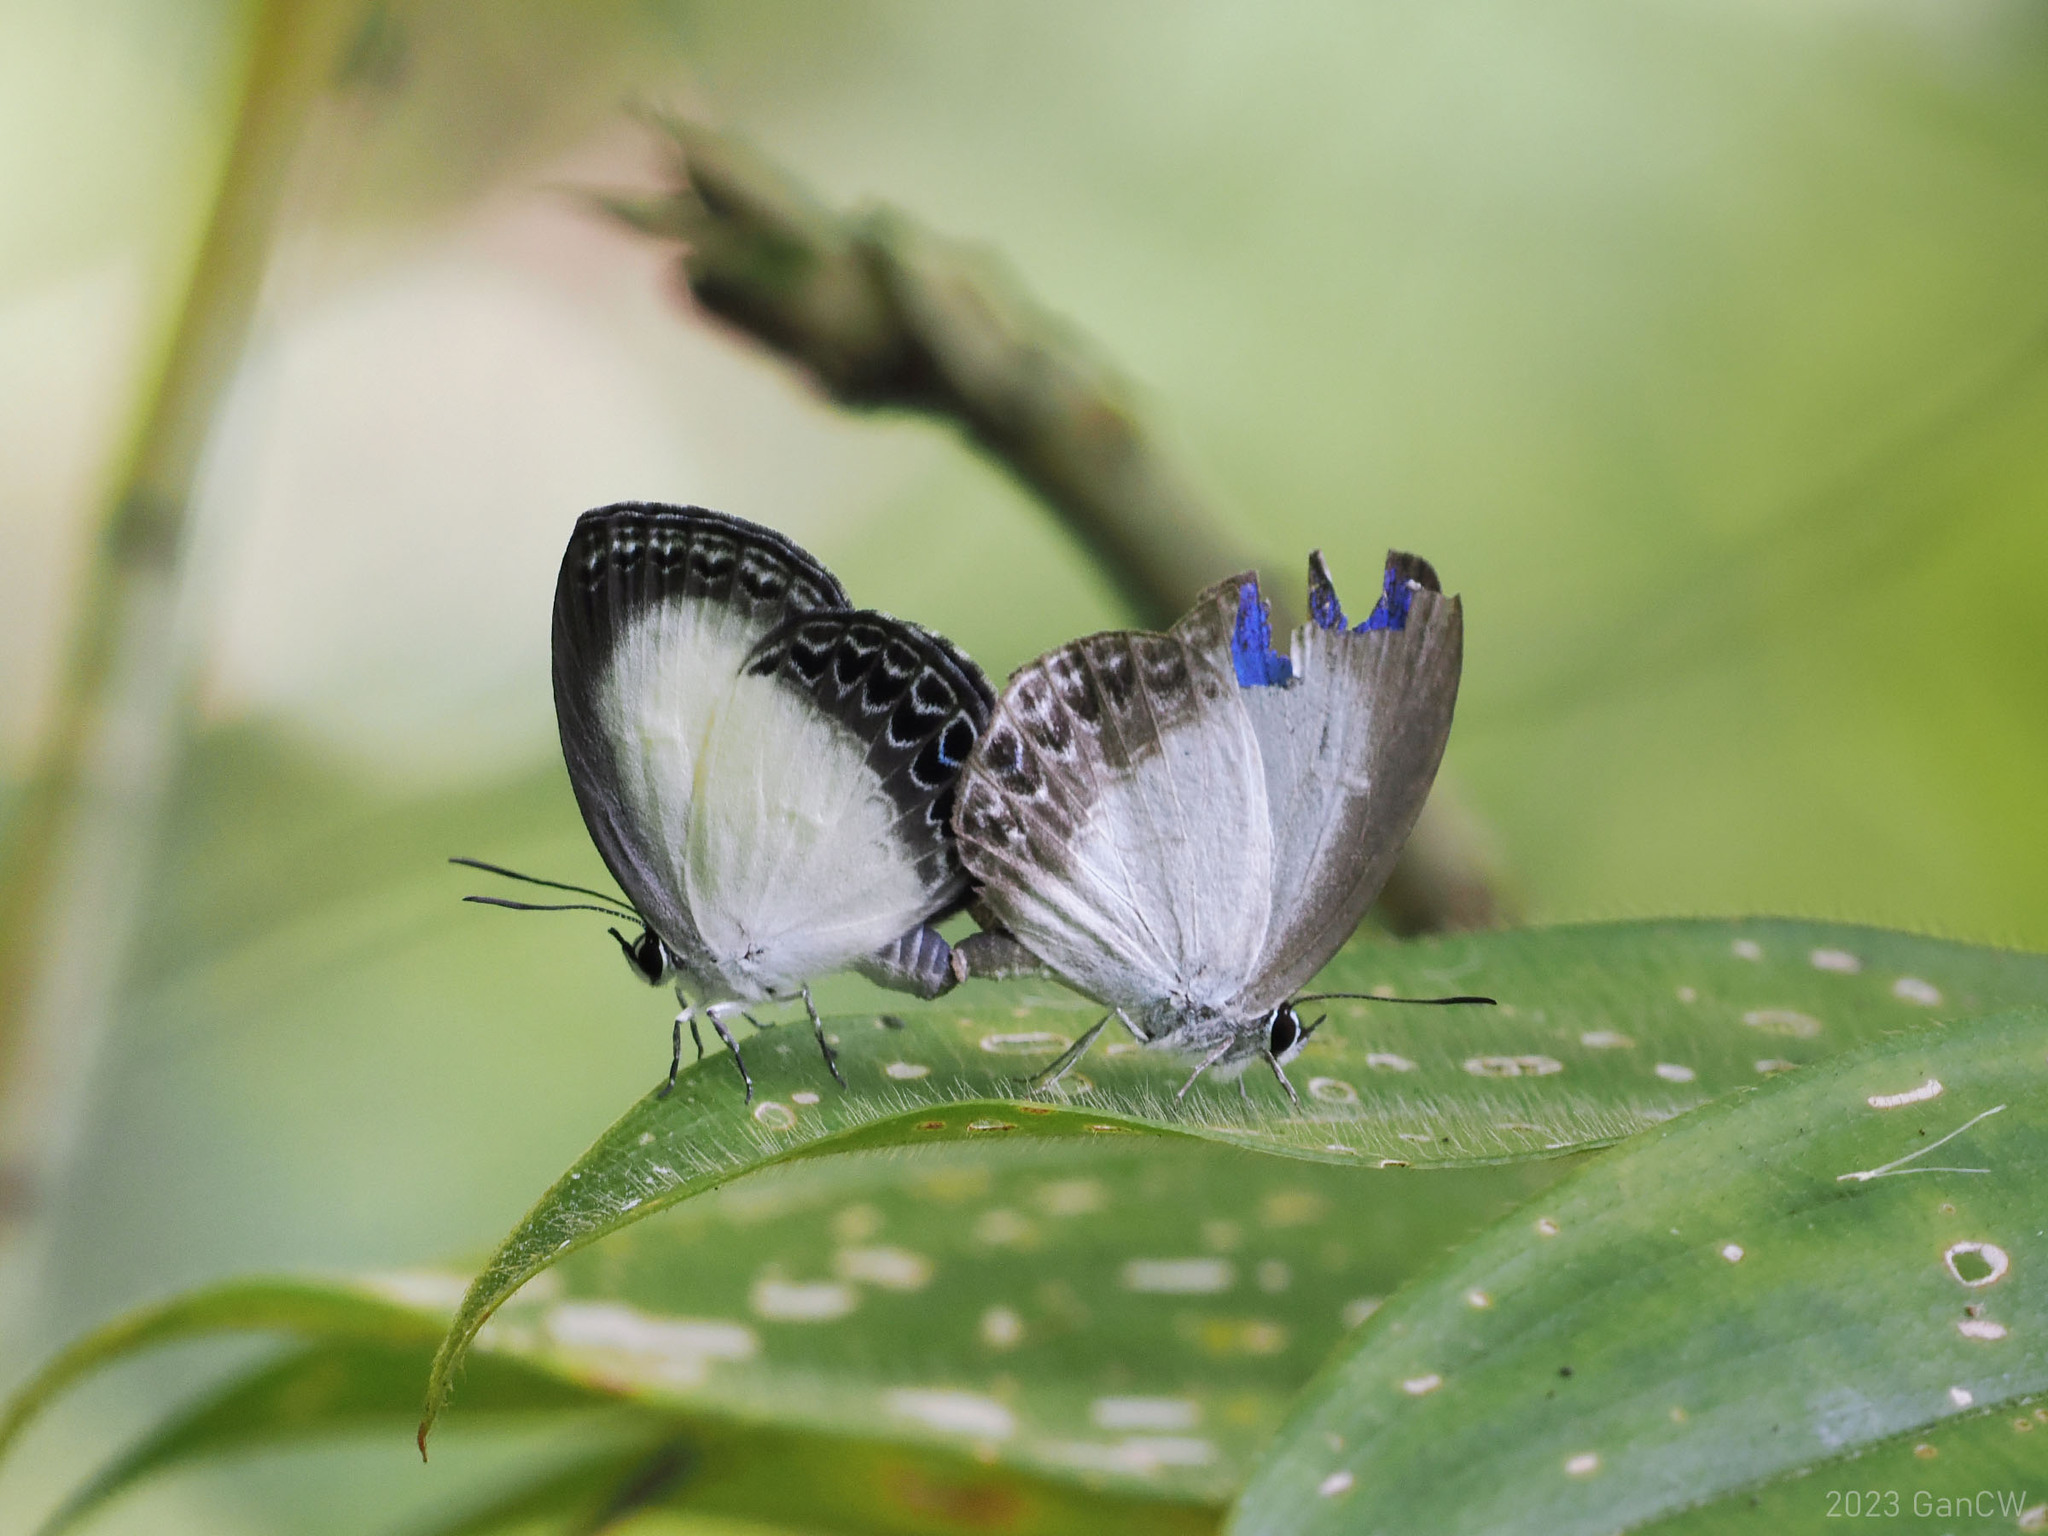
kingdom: Animalia
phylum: Arthropoda
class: Insecta
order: Lepidoptera
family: Lycaenidae
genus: Epimastidia
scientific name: Epimastidia inops
